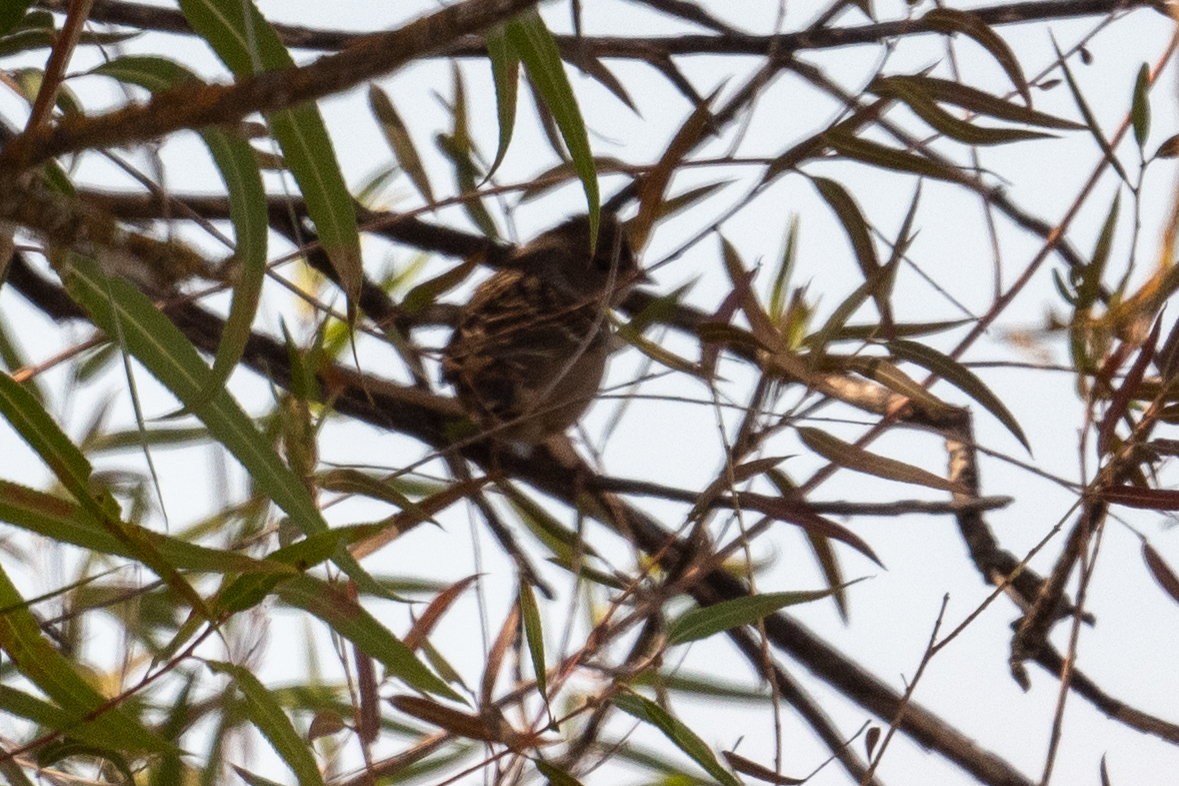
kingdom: Animalia
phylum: Chordata
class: Aves
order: Passeriformes
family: Passerellidae
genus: Zonotrichia
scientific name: Zonotrichia atricapilla
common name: Golden-crowned sparrow
